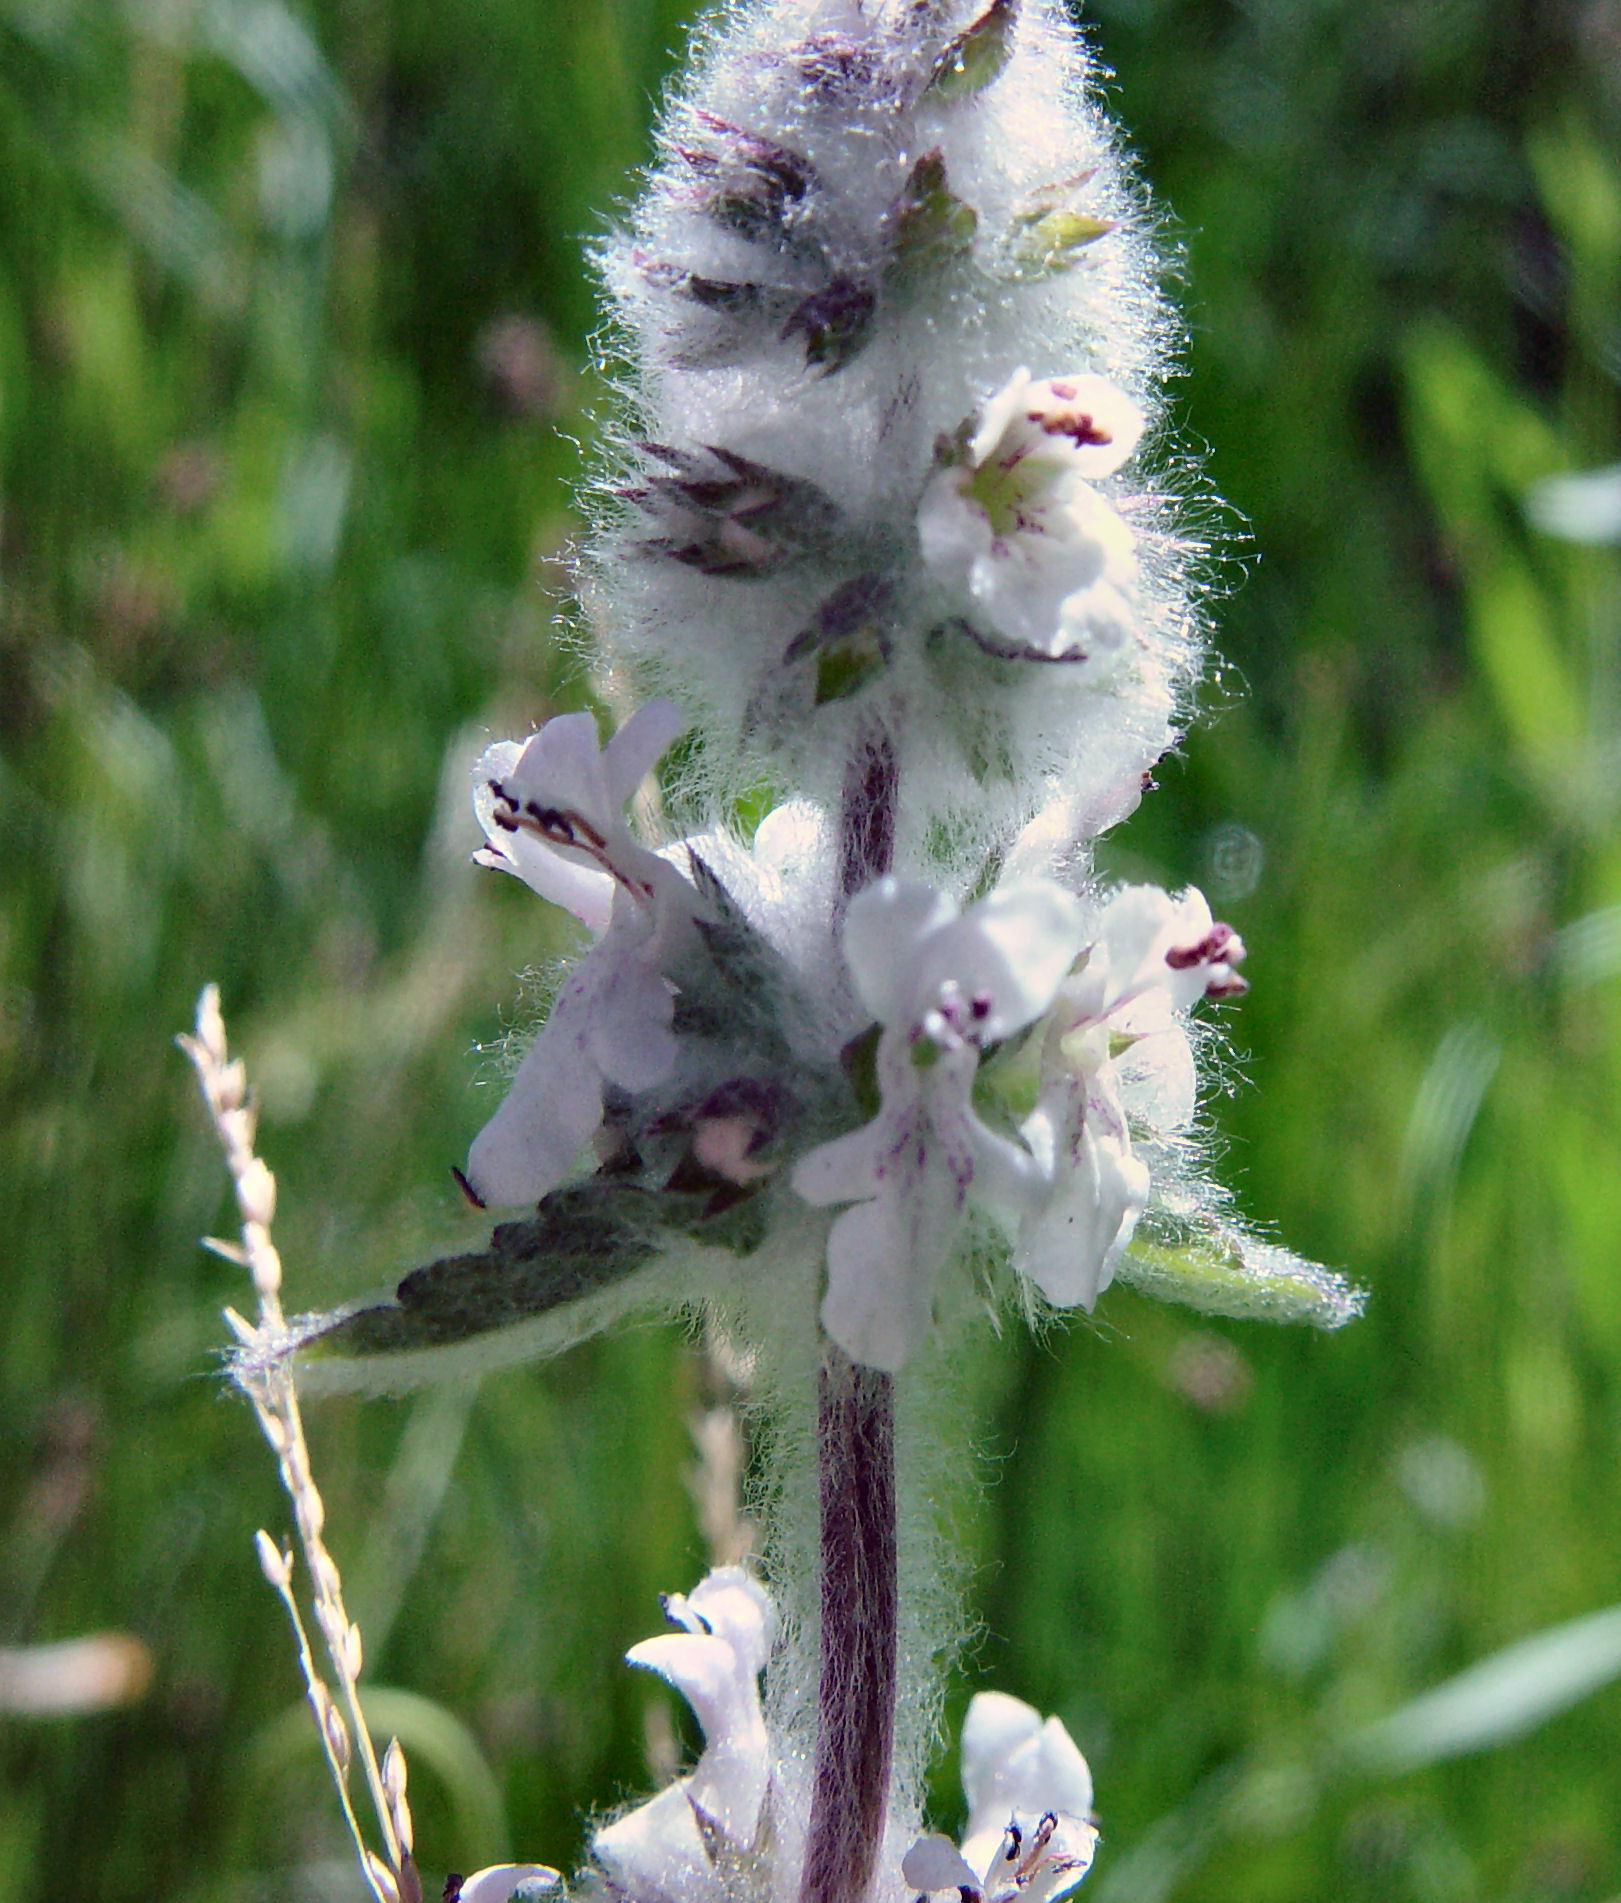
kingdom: Plantae
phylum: Tracheophyta
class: Magnoliopsida
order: Lamiales
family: Lamiaceae
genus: Stachys
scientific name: Stachys albens
